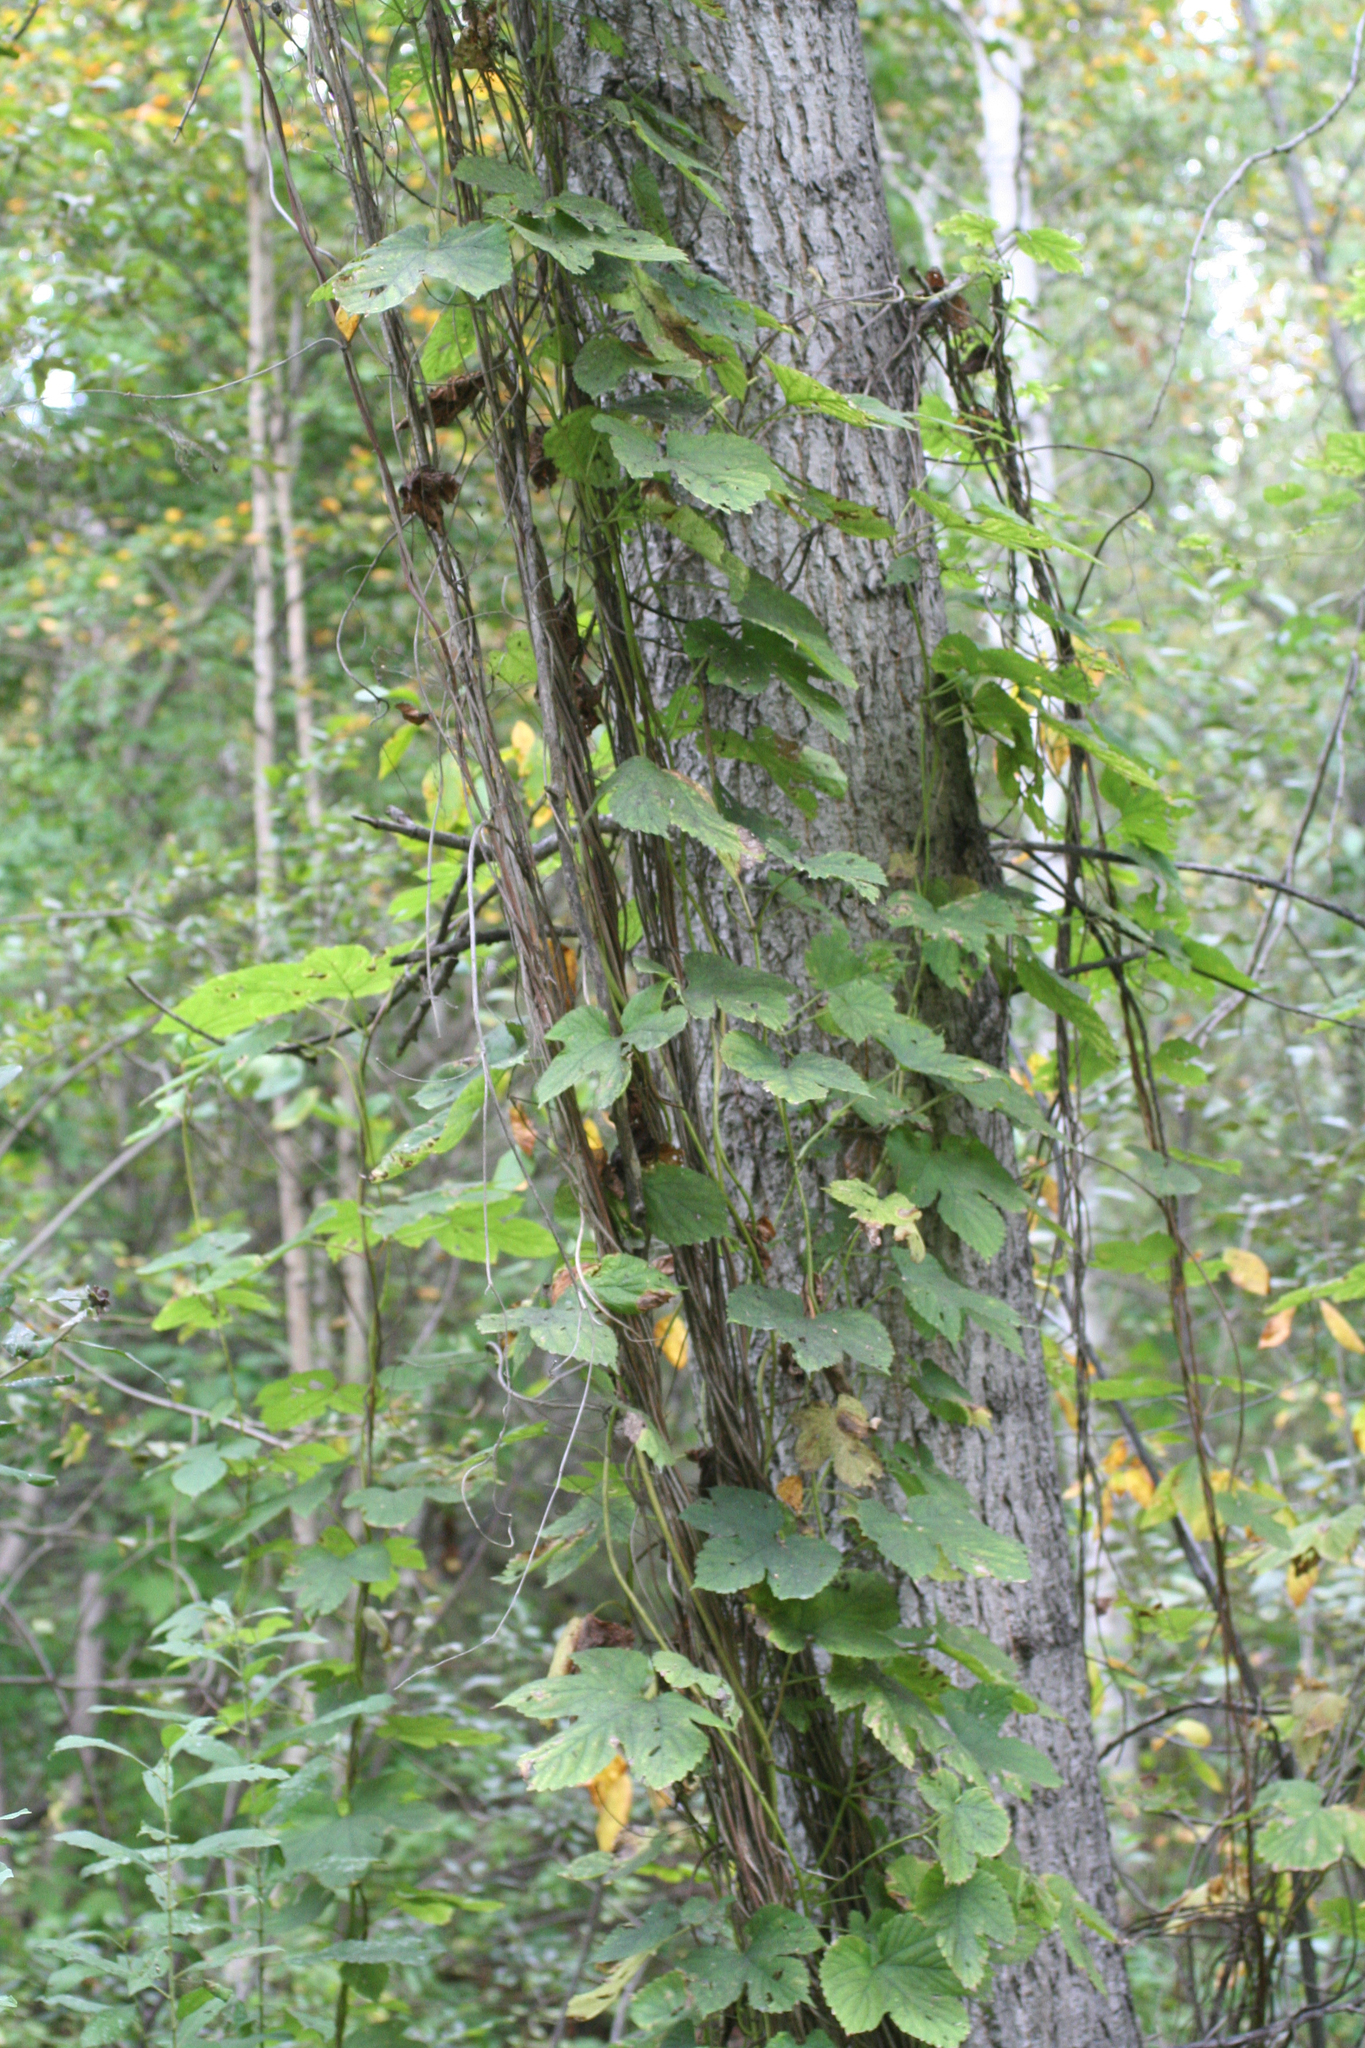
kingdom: Plantae
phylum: Tracheophyta
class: Magnoliopsida
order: Rosales
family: Cannabaceae
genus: Humulus
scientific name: Humulus lupulus
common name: Hop
